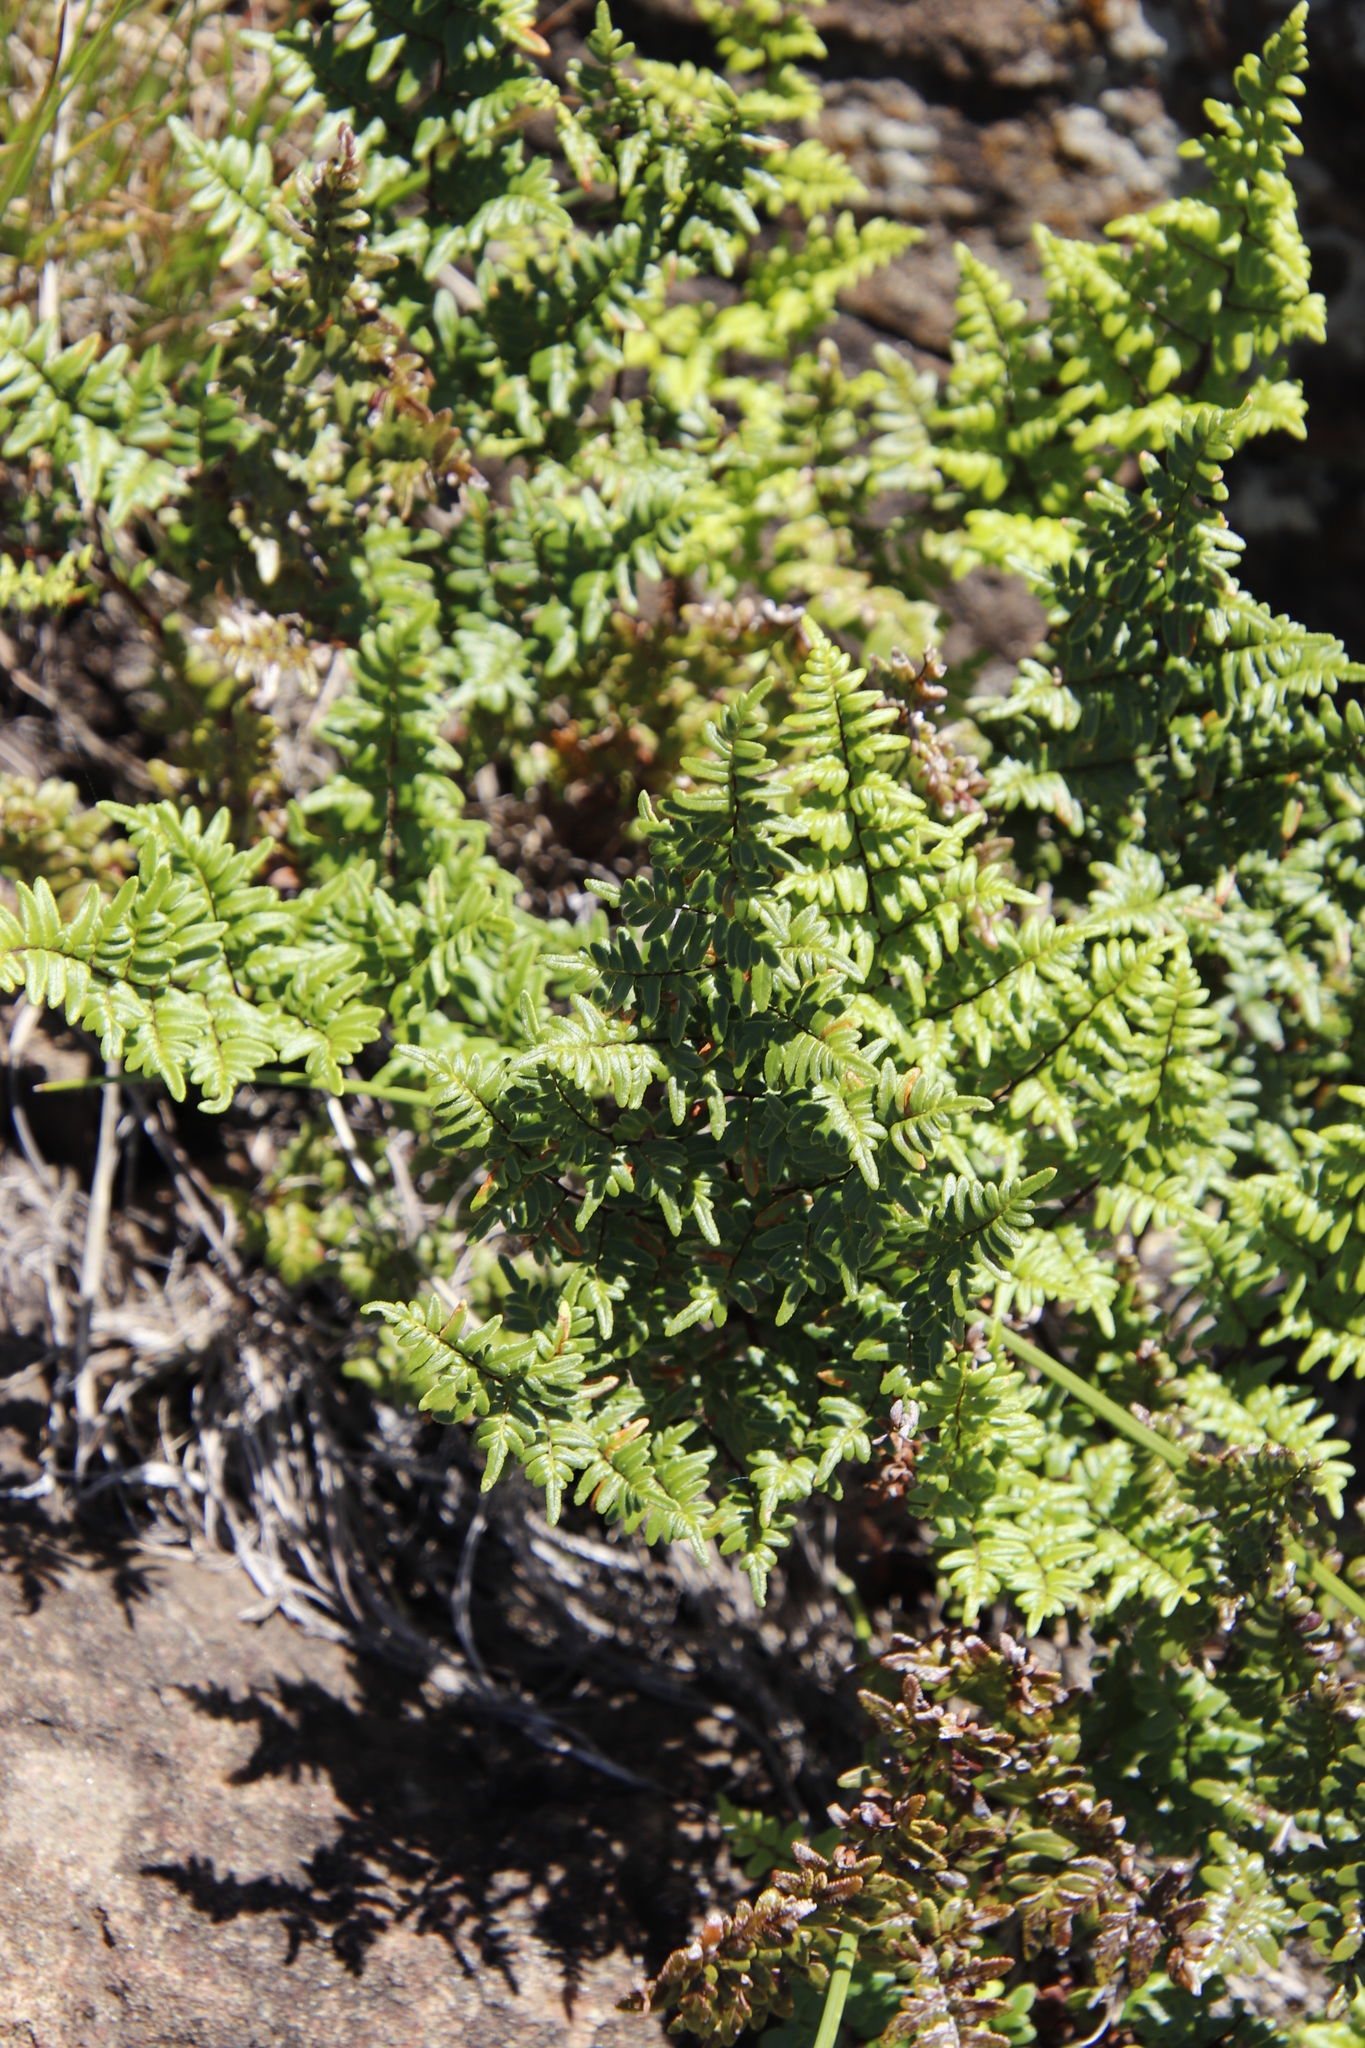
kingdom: Plantae
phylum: Tracheophyta
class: Polypodiopsida
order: Polypodiales
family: Pteridaceae
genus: Cheilanthes
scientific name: Cheilanthes quadripinnata
